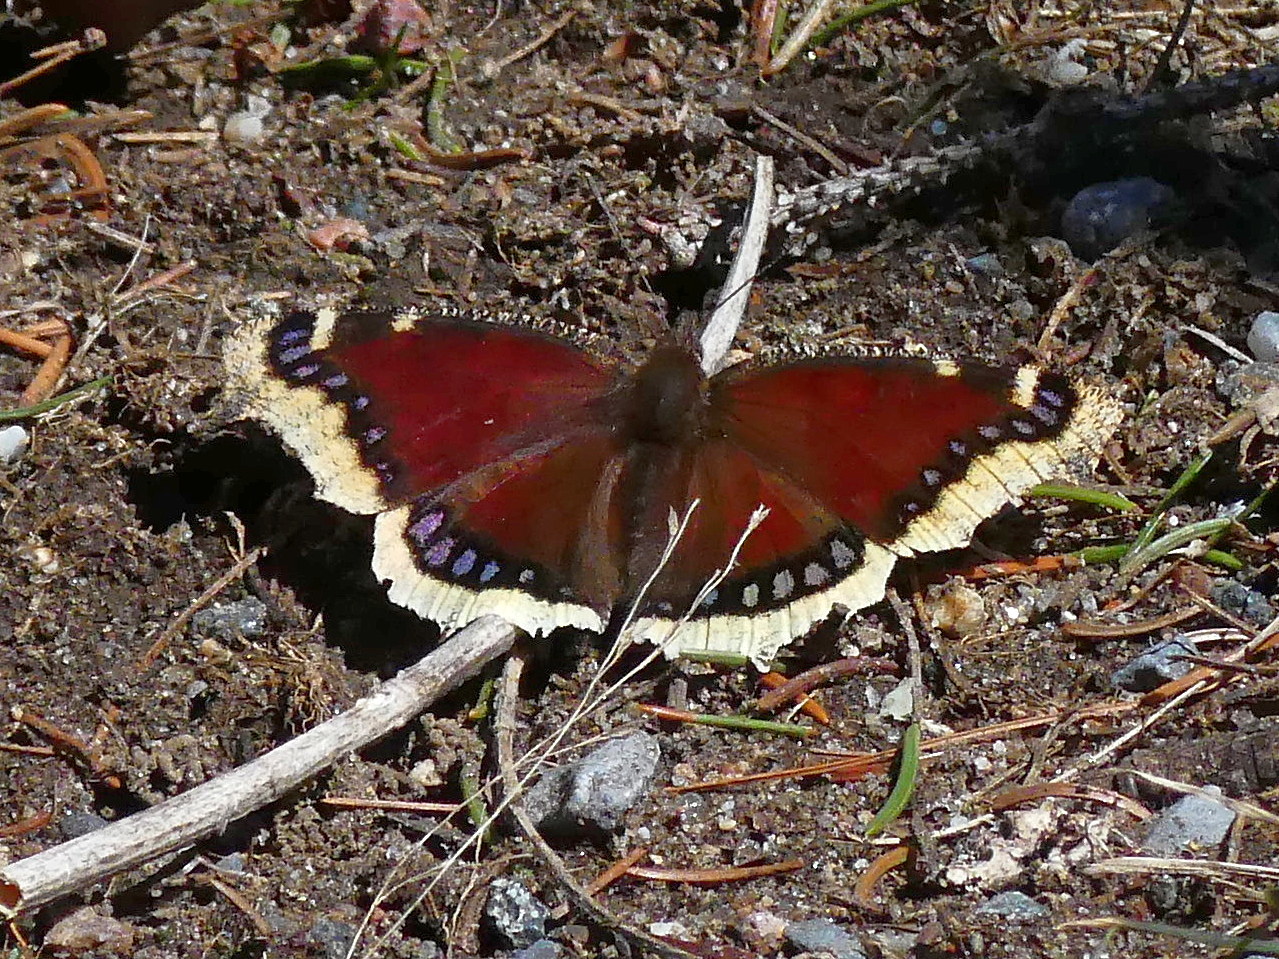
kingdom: Animalia
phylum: Arthropoda
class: Insecta
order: Lepidoptera
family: Nymphalidae
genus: Nymphalis
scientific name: Nymphalis antiopa
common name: Camberwell beauty
